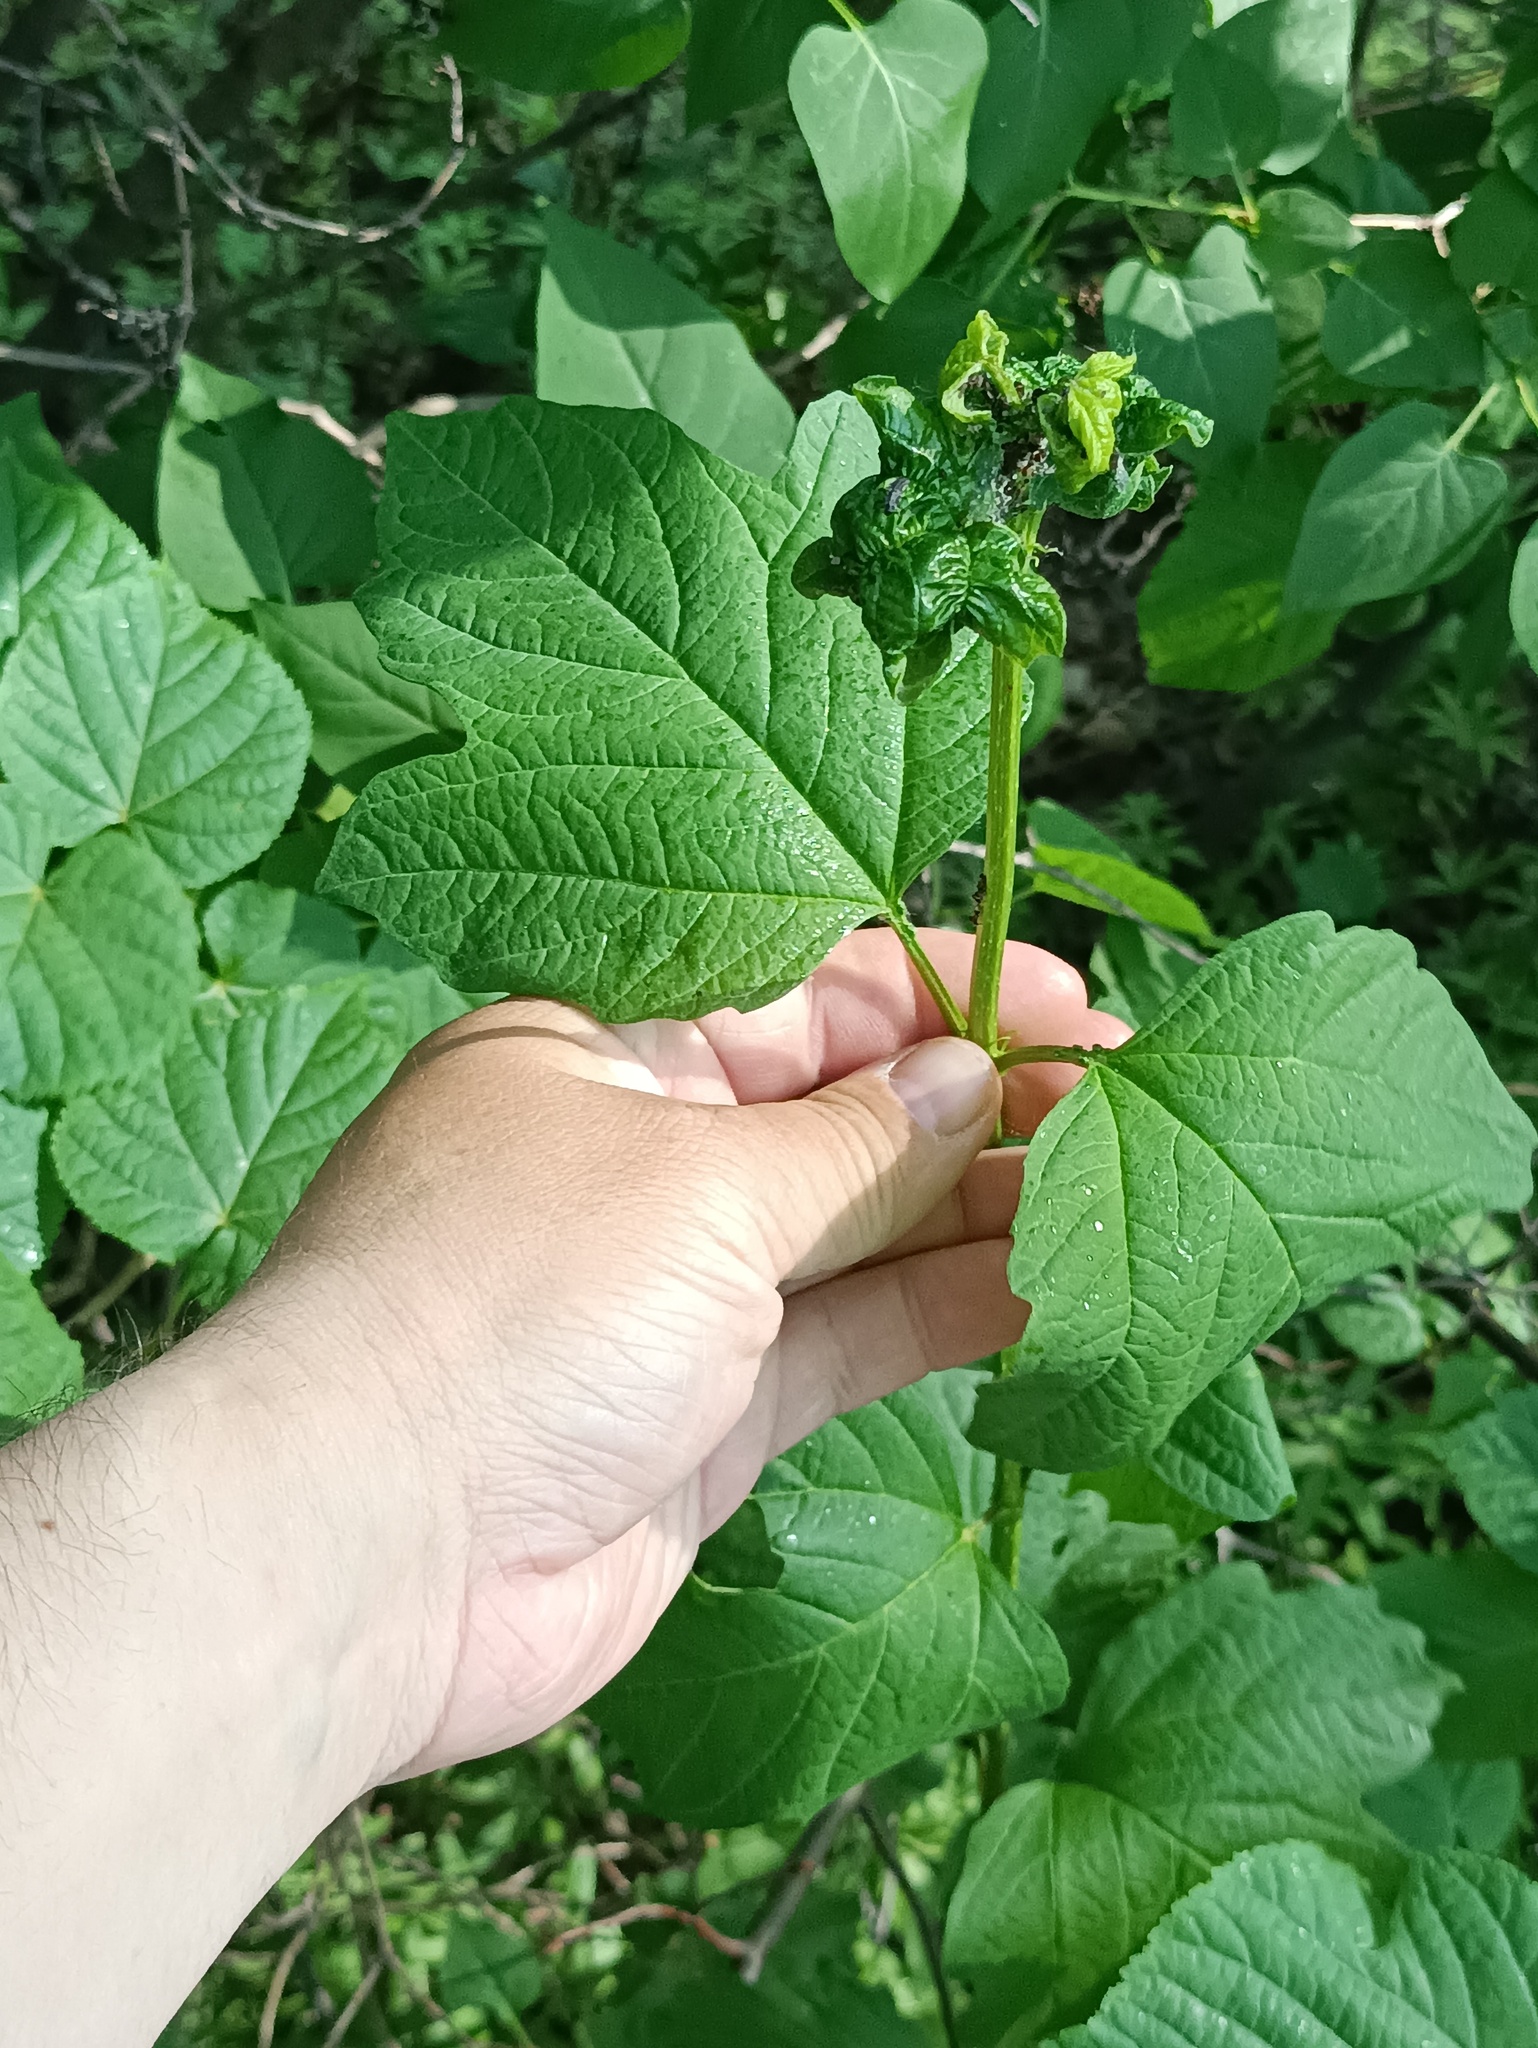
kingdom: Plantae
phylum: Tracheophyta
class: Magnoliopsida
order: Dipsacales
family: Viburnaceae
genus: Viburnum
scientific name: Viburnum opulus
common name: Guelder-rose
